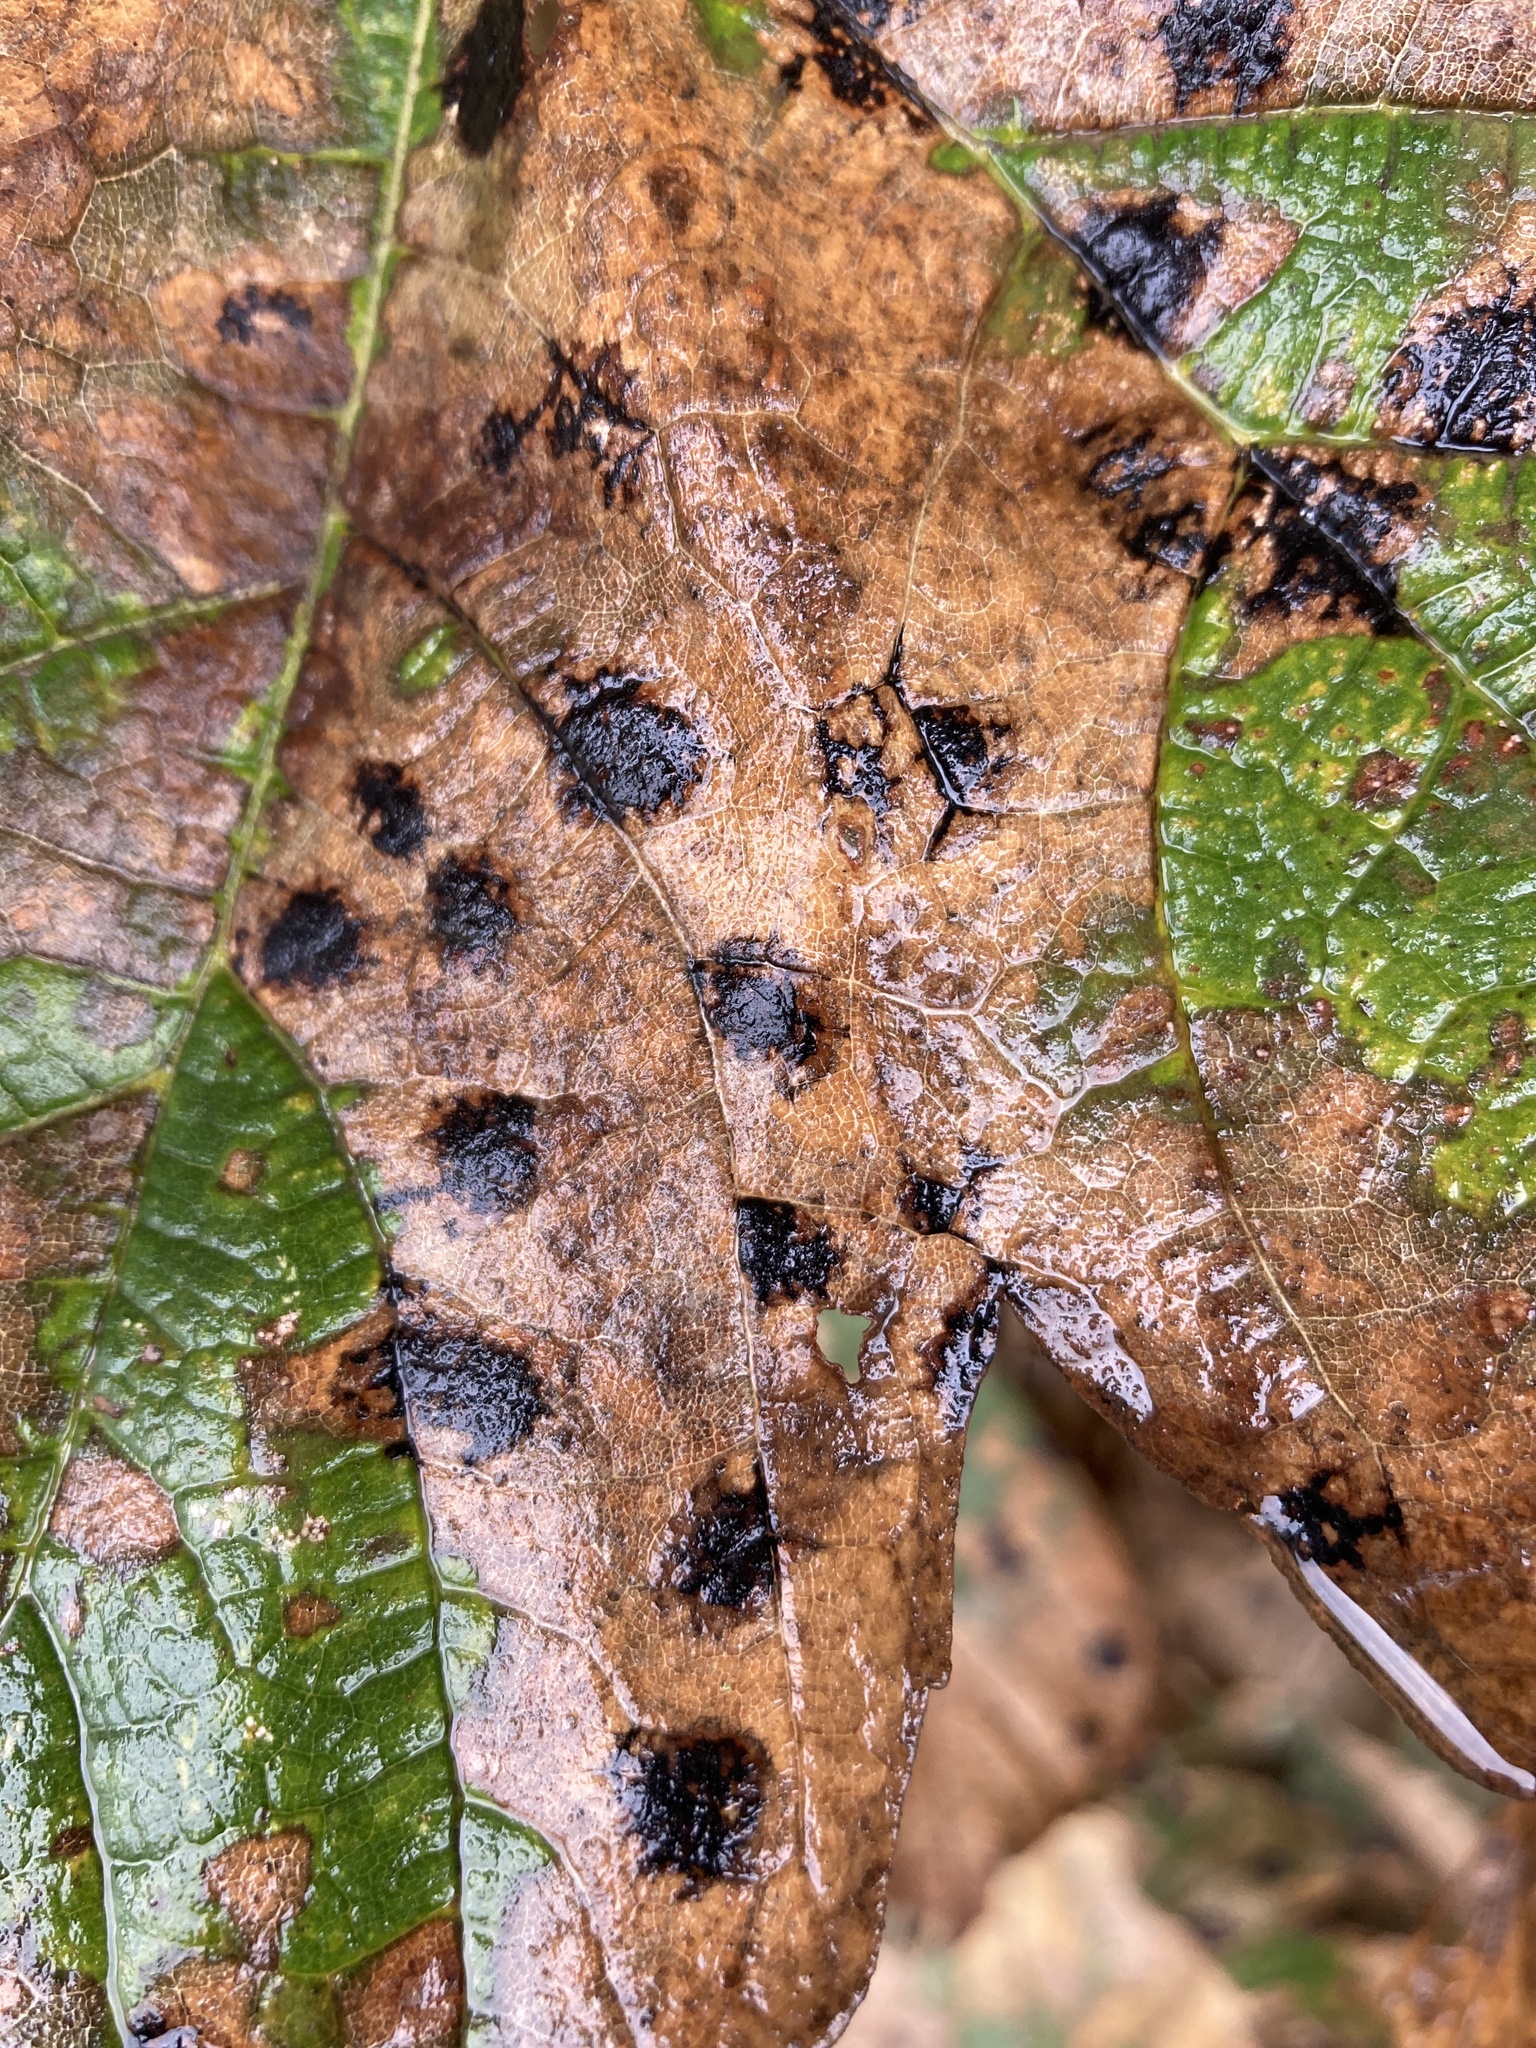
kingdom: Fungi
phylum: Ascomycota
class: Leotiomycetes
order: Rhytismatales
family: Rhytismataceae
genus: Rhytisma
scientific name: Rhytisma acerinum
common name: European tar spot
